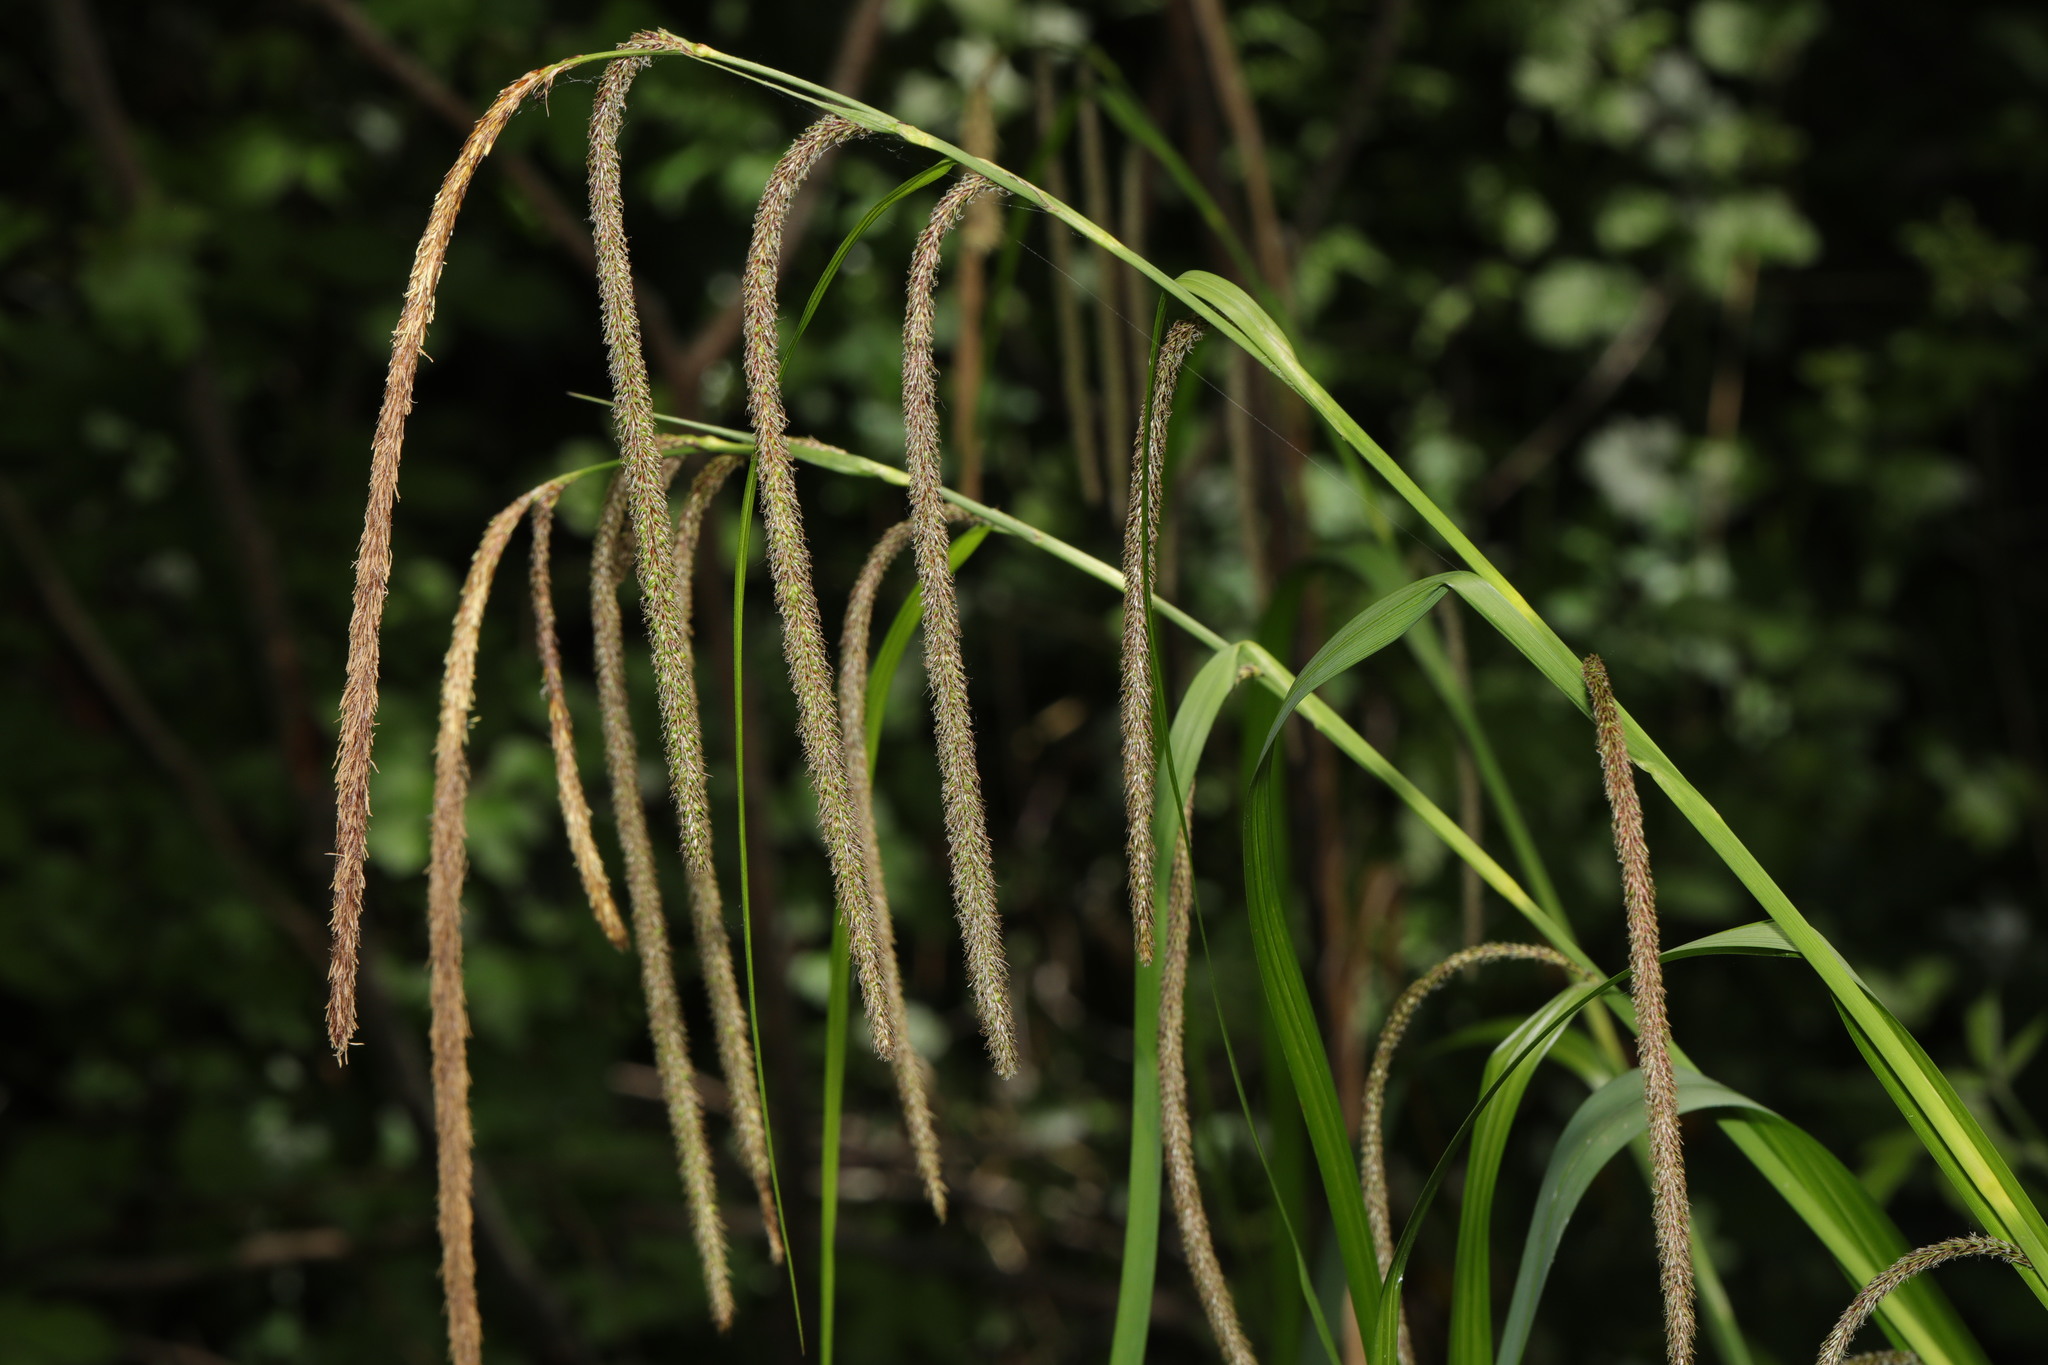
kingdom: Plantae
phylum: Tracheophyta
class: Liliopsida
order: Poales
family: Cyperaceae
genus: Carex
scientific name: Carex pendula
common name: Pendulous sedge
